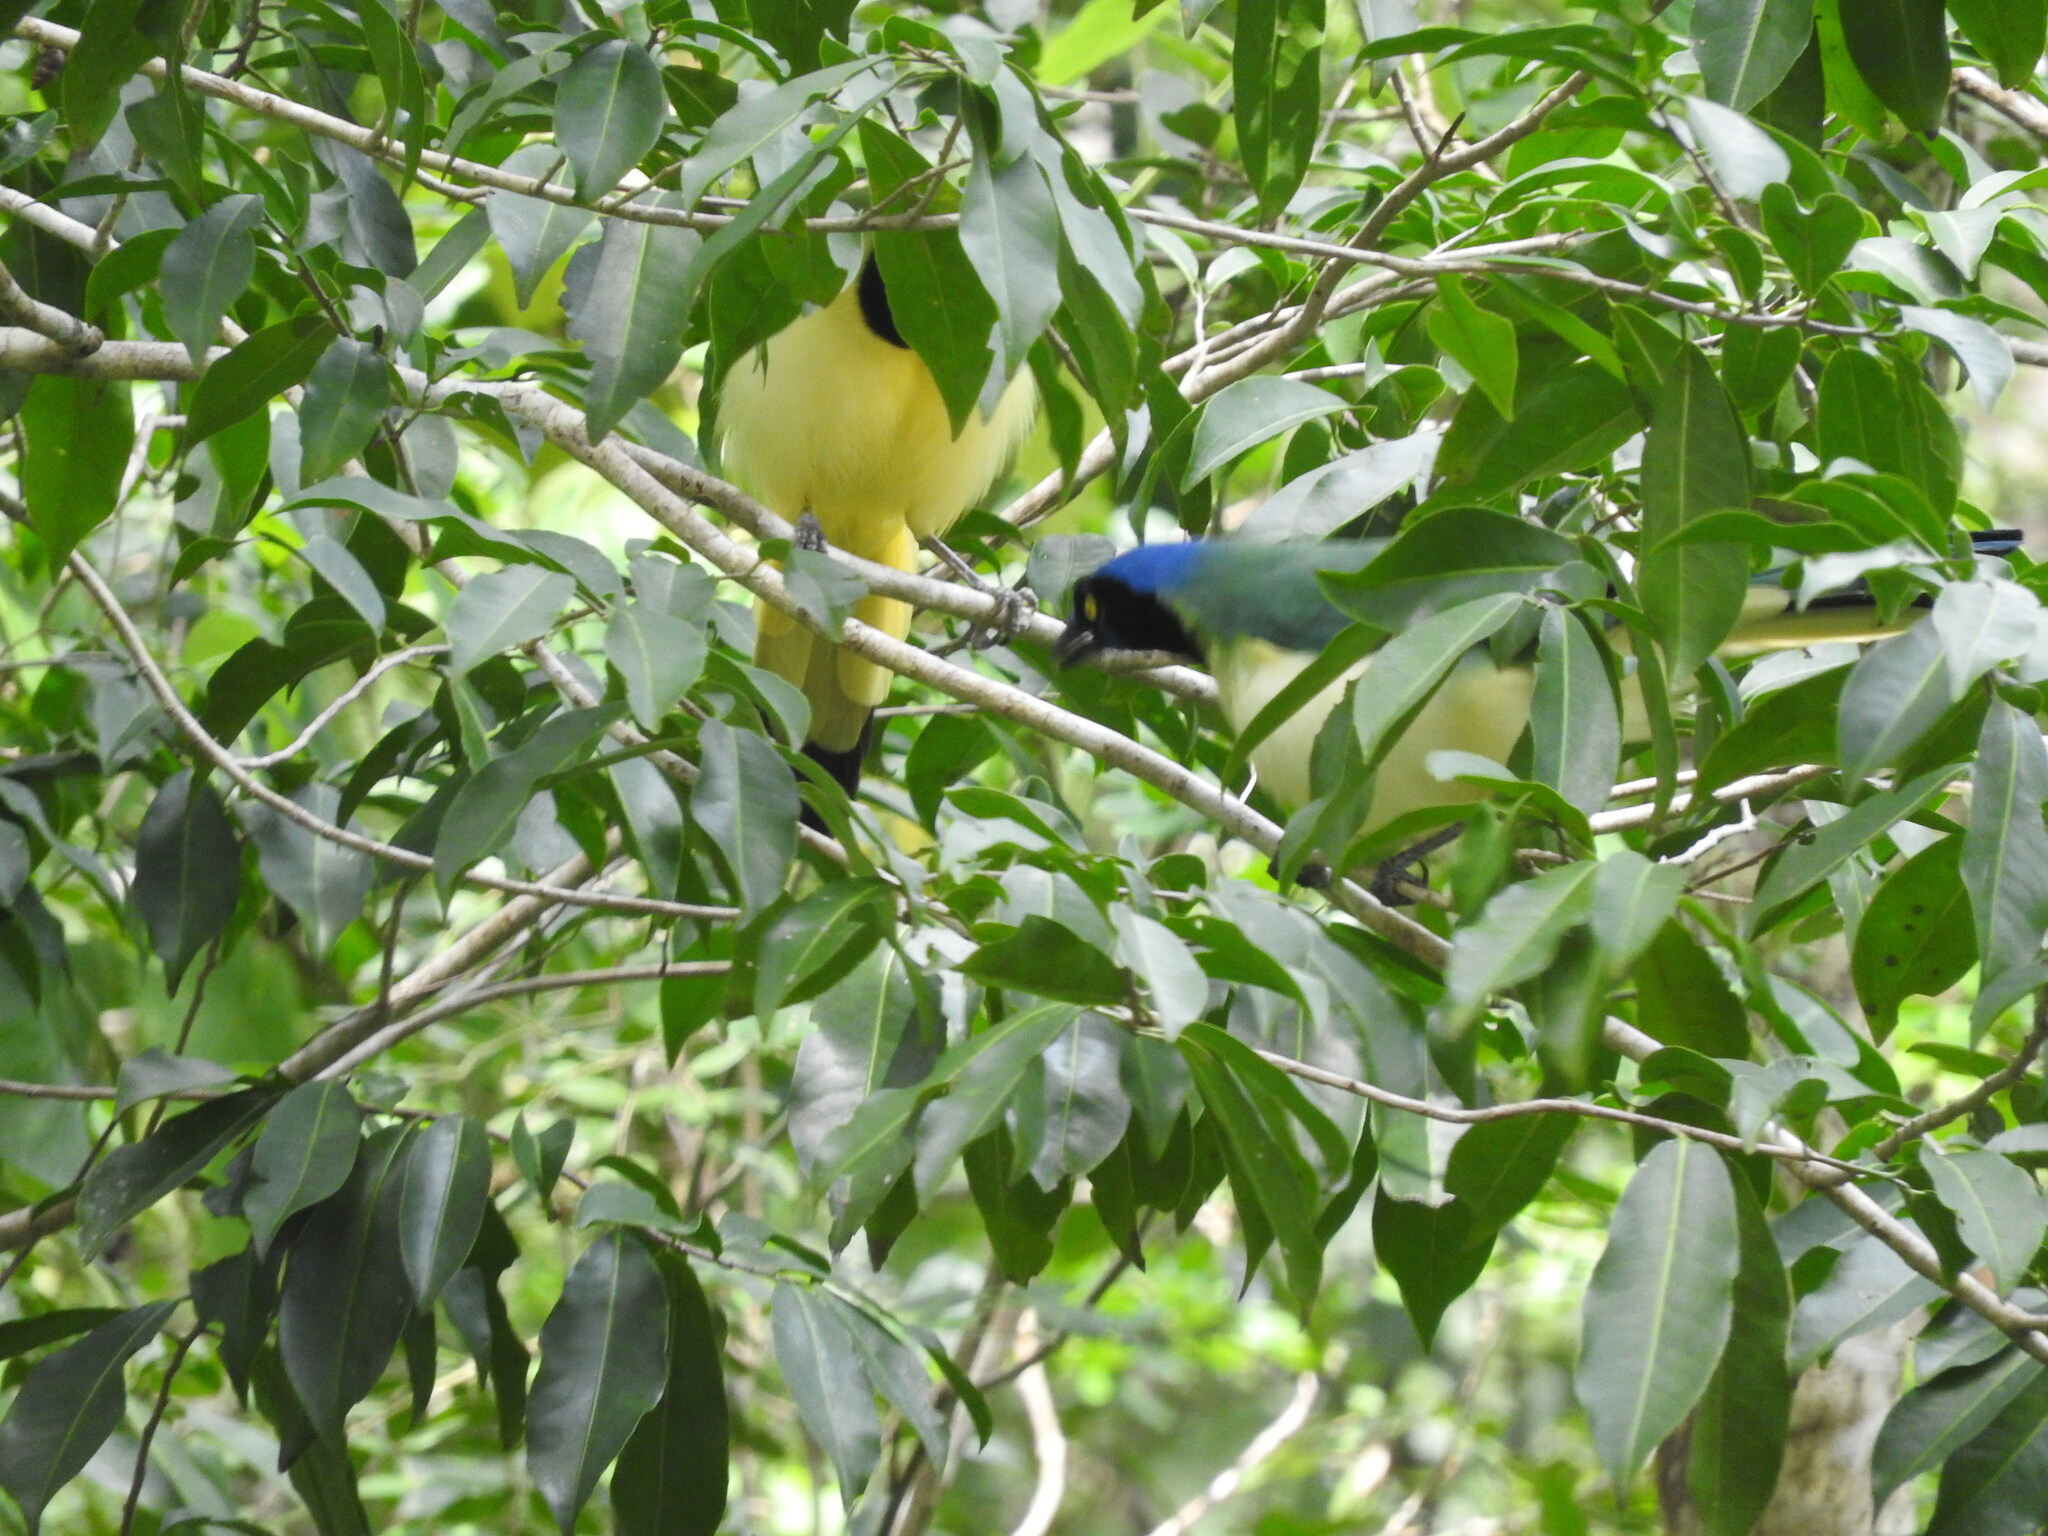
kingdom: Animalia
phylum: Chordata
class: Aves
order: Passeriformes
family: Corvidae
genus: Cyanocorax
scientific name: Cyanocorax yncas
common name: Green jay
